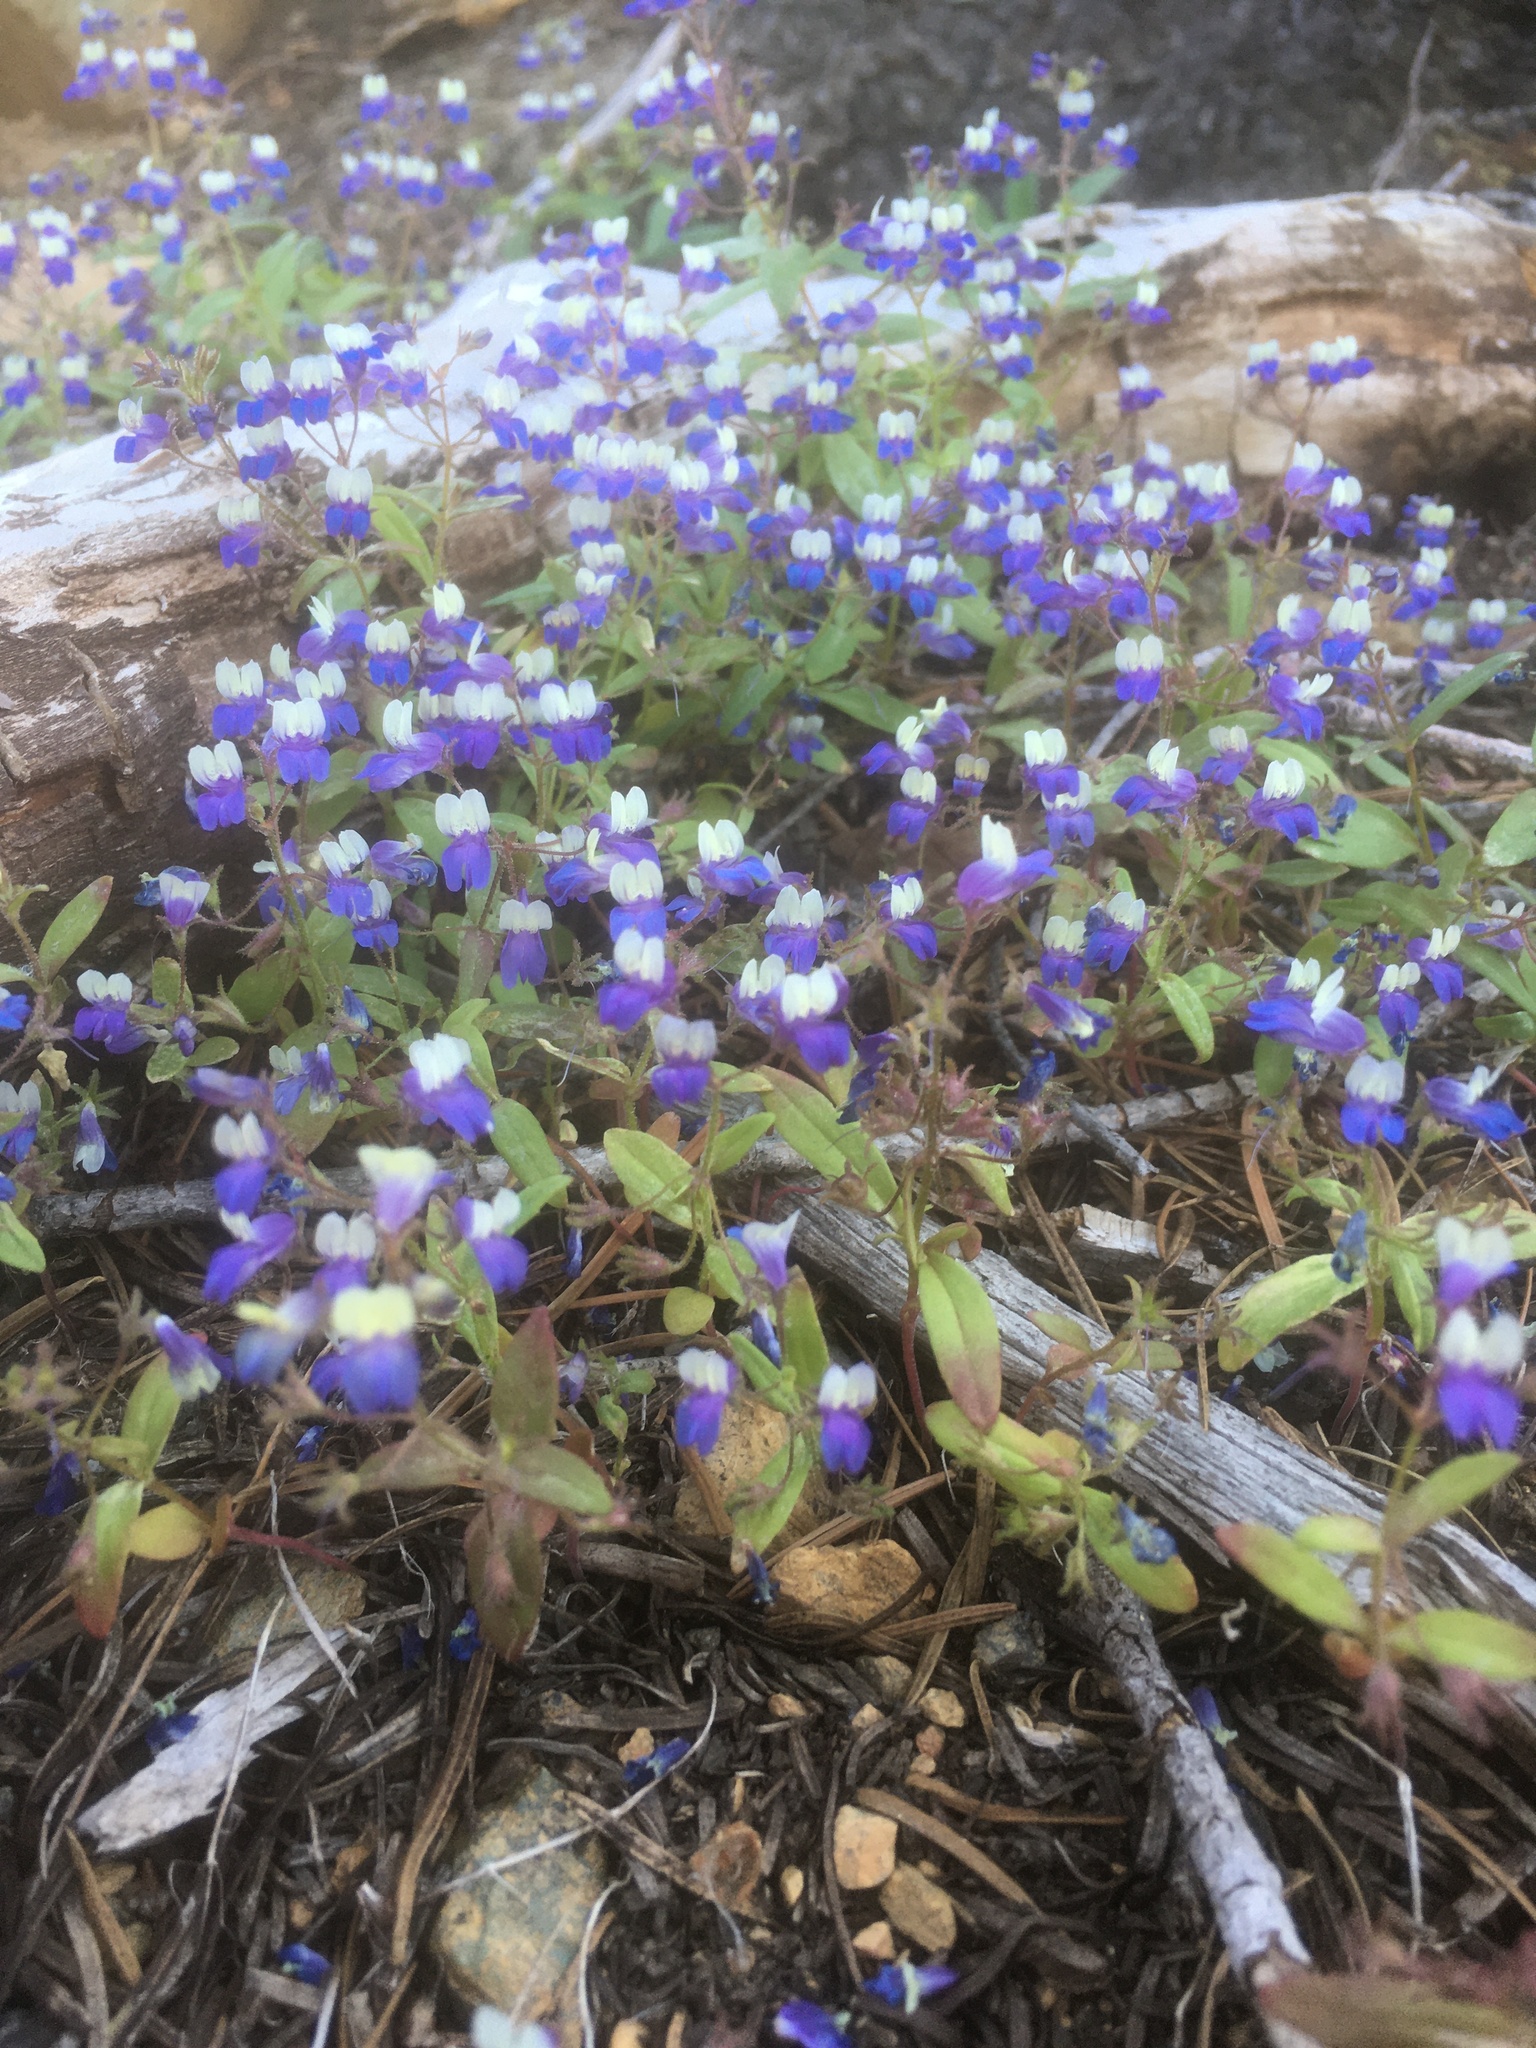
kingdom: Plantae
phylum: Tracheophyta
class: Magnoliopsida
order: Lamiales
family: Plantaginaceae
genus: Collinsia
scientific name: Collinsia torreyi
